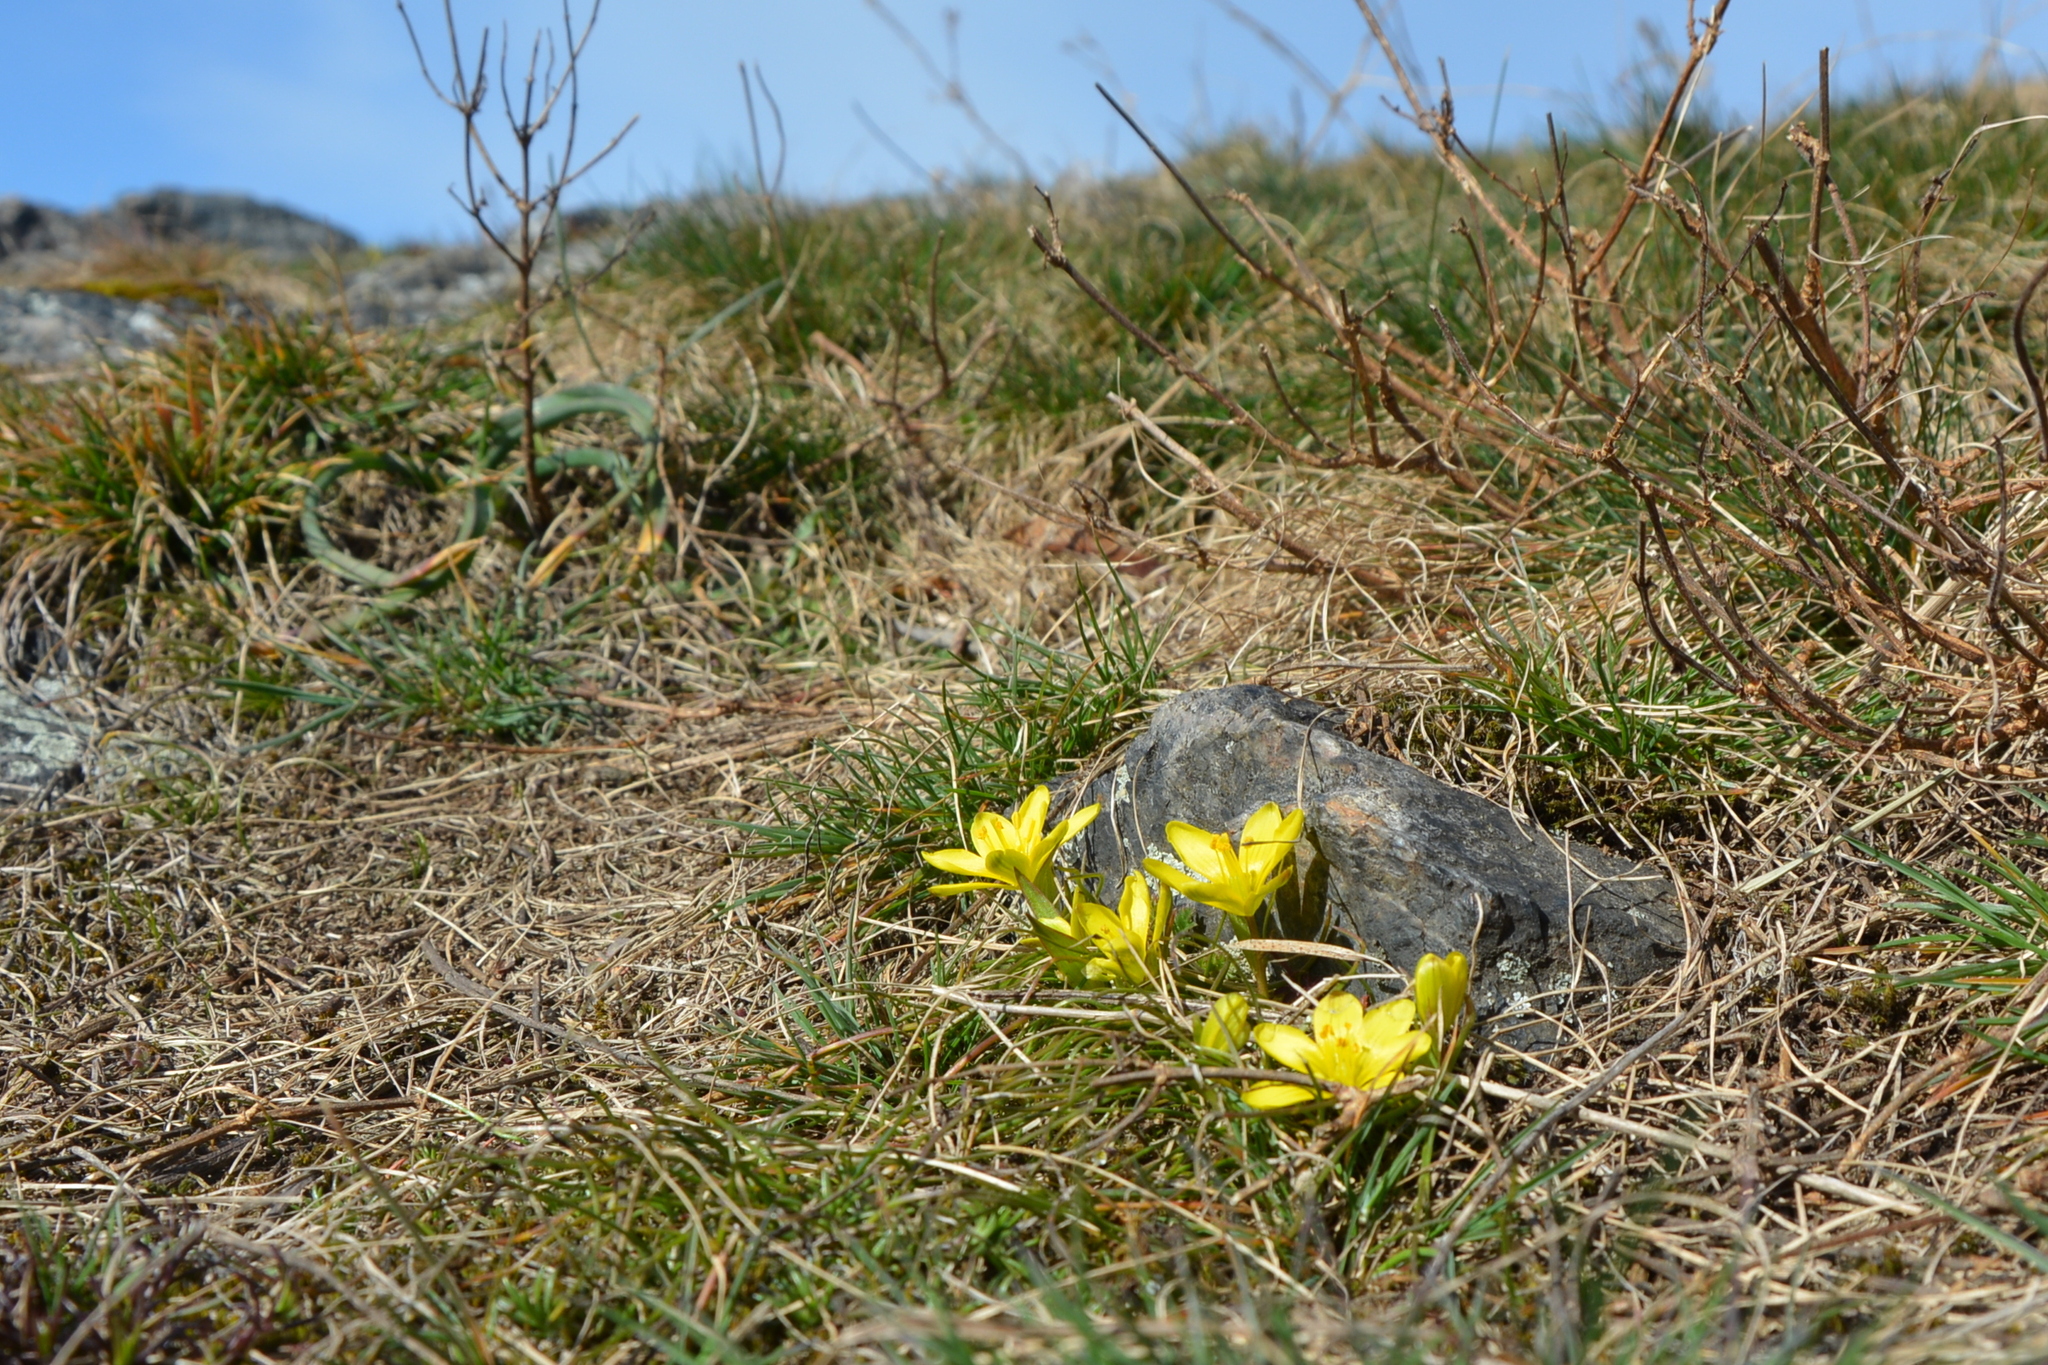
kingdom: Plantae
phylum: Tracheophyta
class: Liliopsida
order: Liliales
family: Liliaceae
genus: Gagea
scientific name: Gagea bohemica
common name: Early star-of-bethlehem
